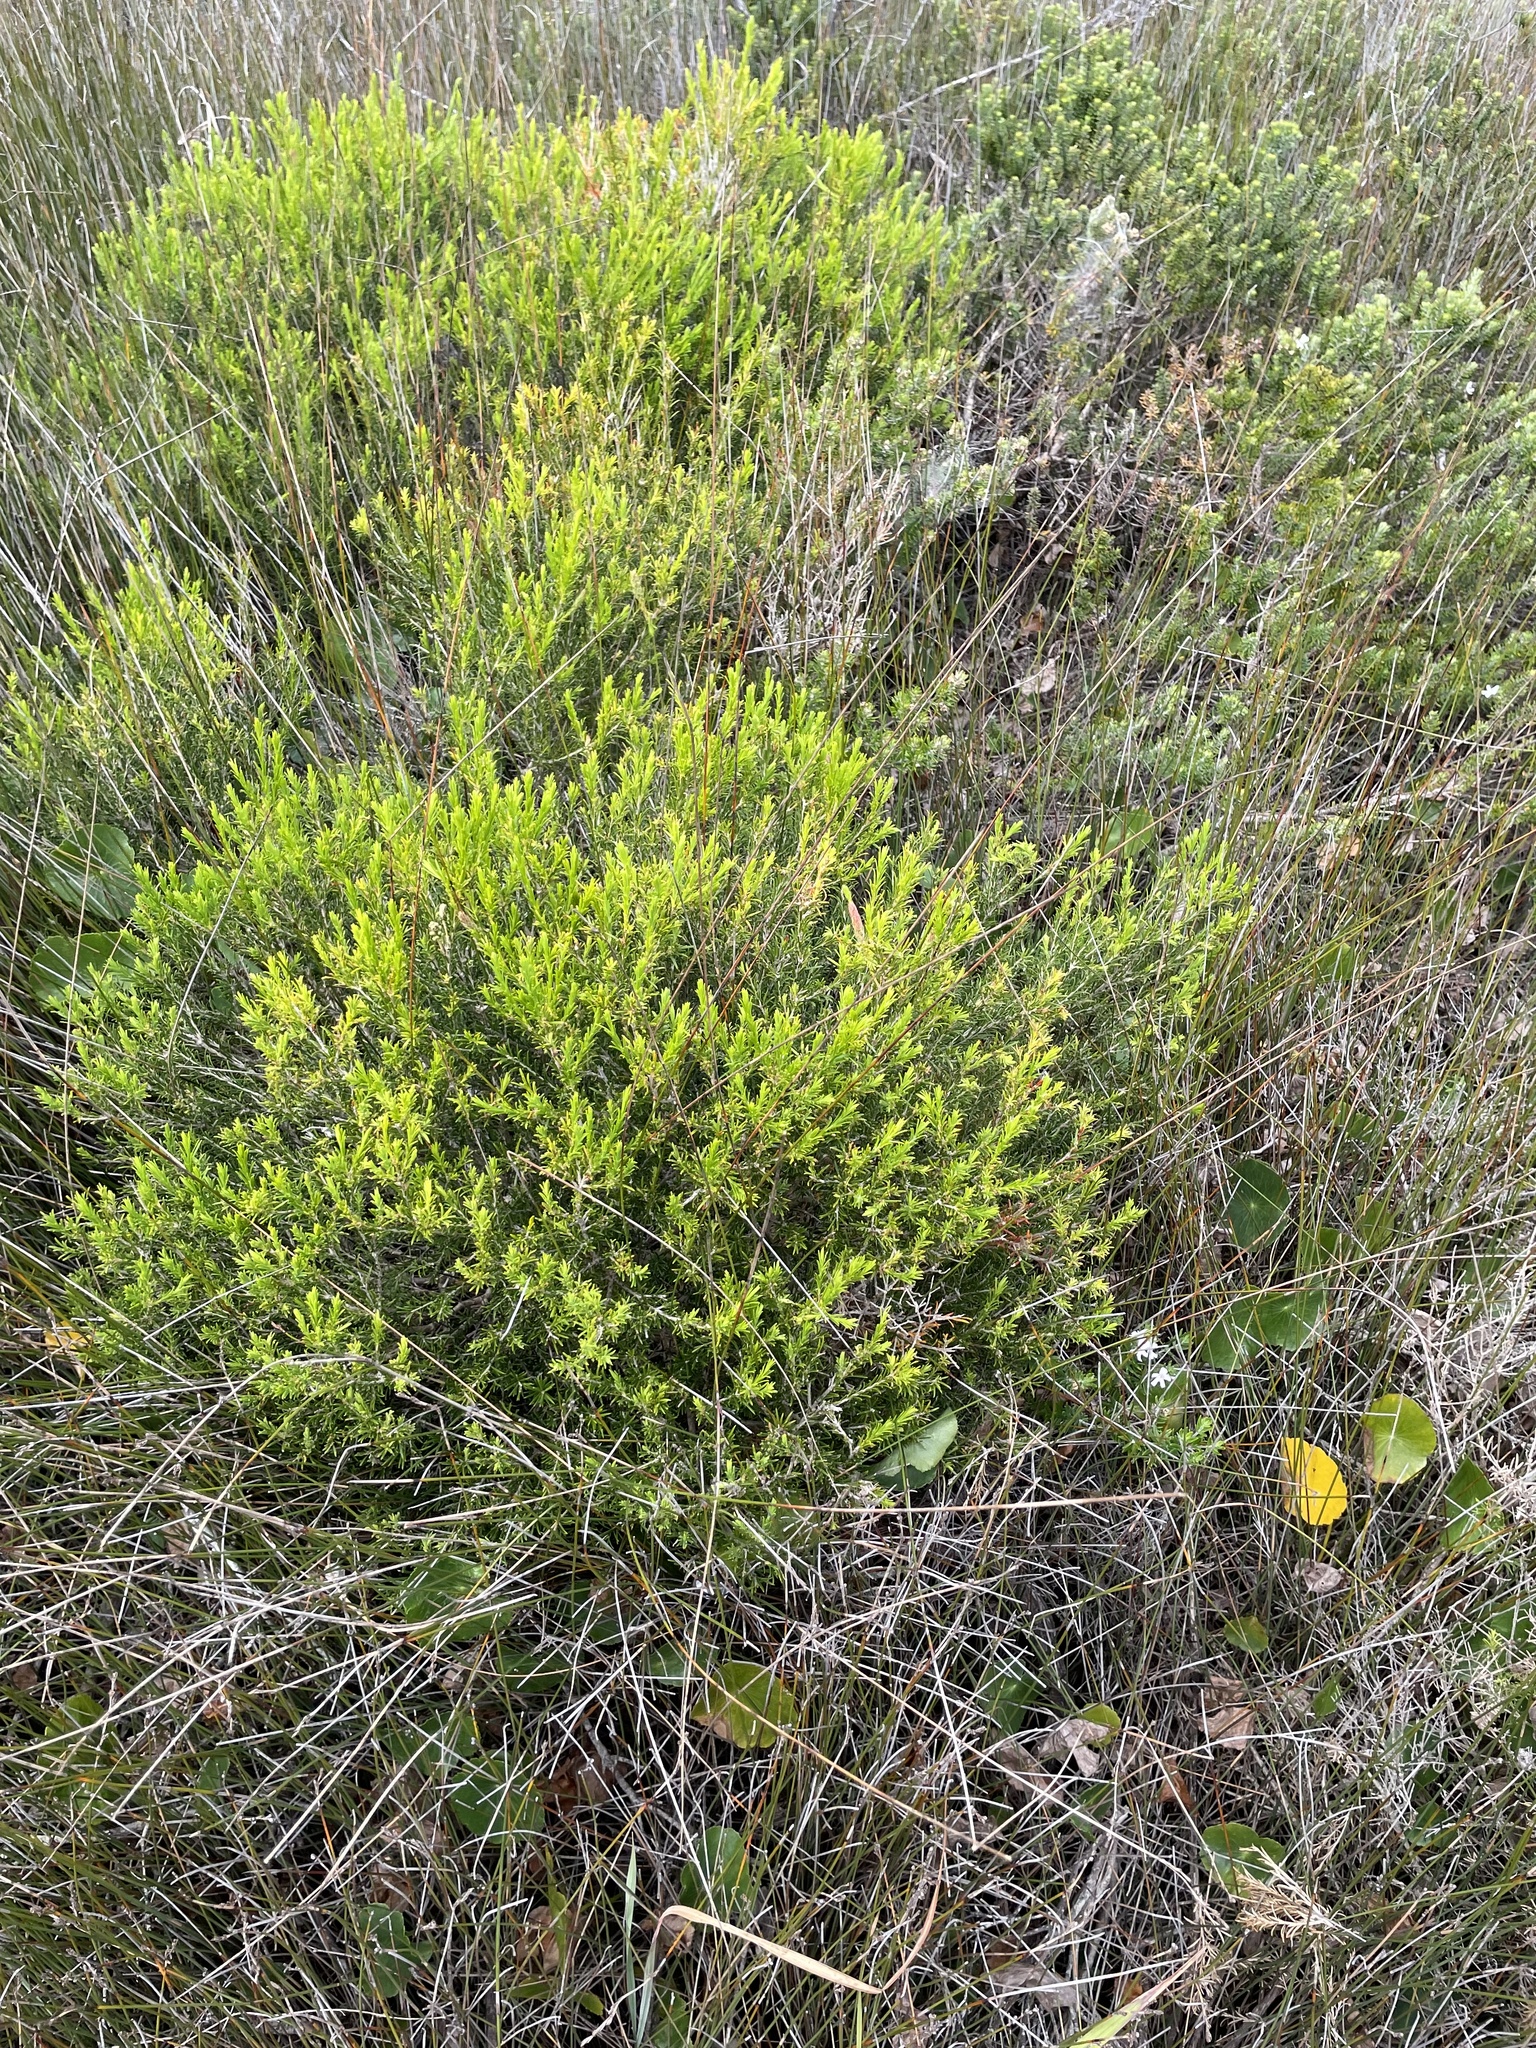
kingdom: Plantae
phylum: Tracheophyta
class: Magnoliopsida
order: Lamiales
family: Lamiaceae
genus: Westringia
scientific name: Westringia fruticosa
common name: Coastal-rosemary
